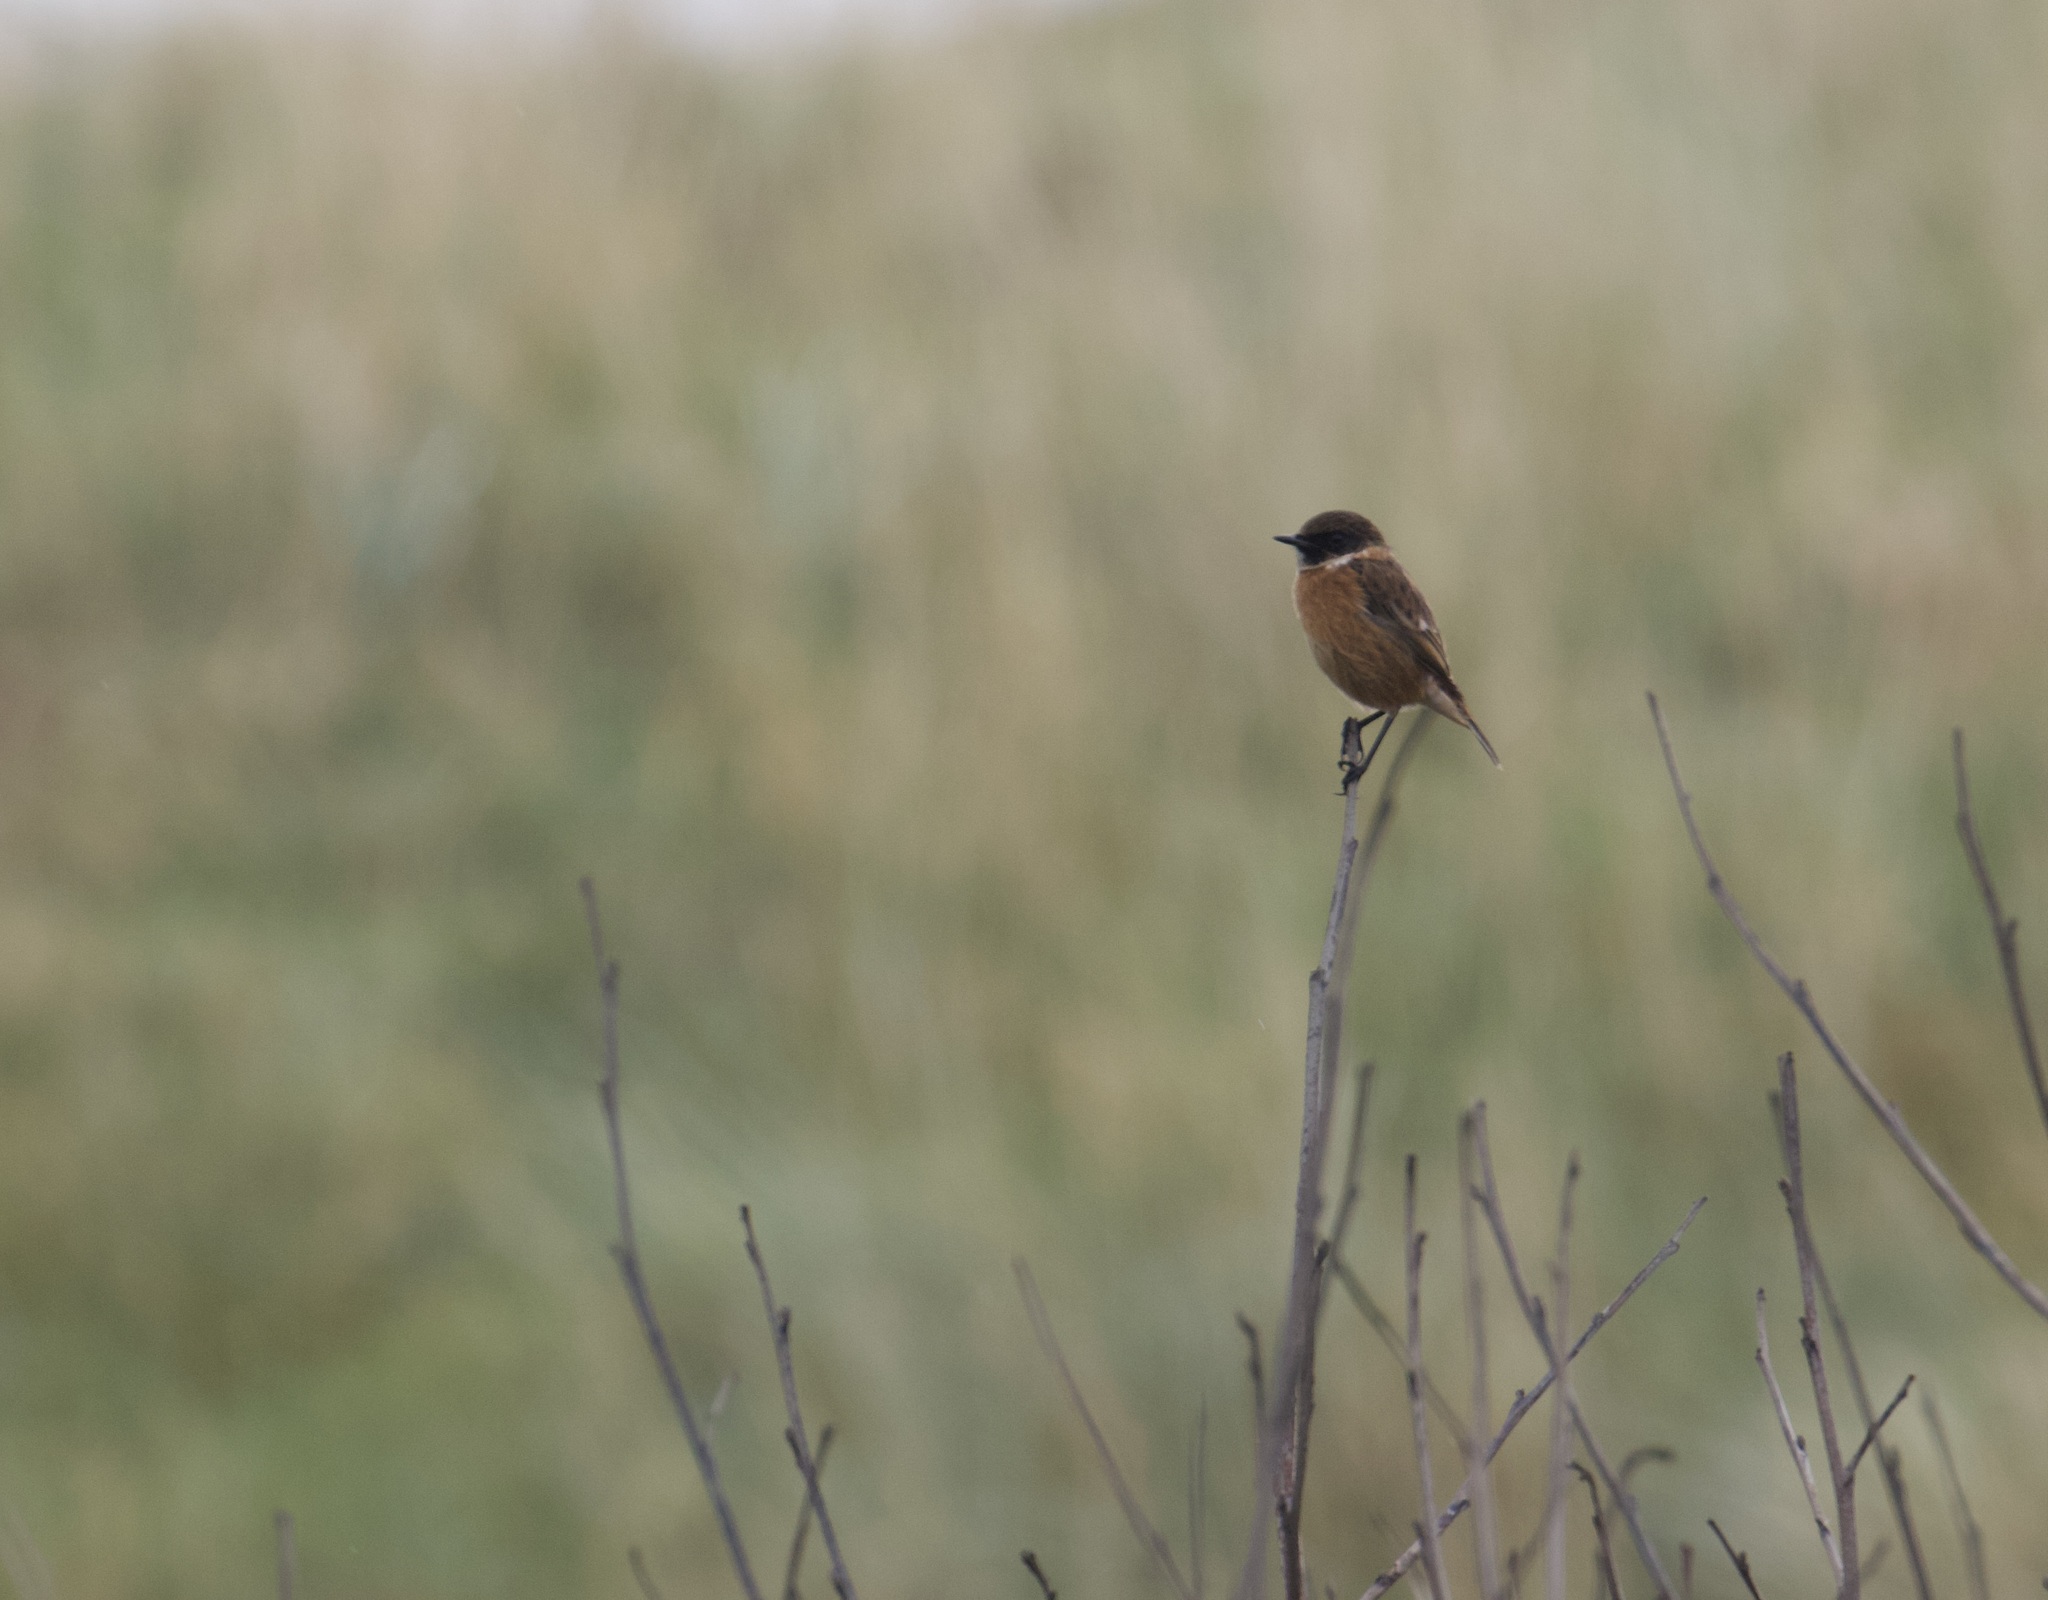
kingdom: Animalia
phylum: Chordata
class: Aves
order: Passeriformes
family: Muscicapidae
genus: Saxicola
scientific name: Saxicola rubicola
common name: European stonechat
